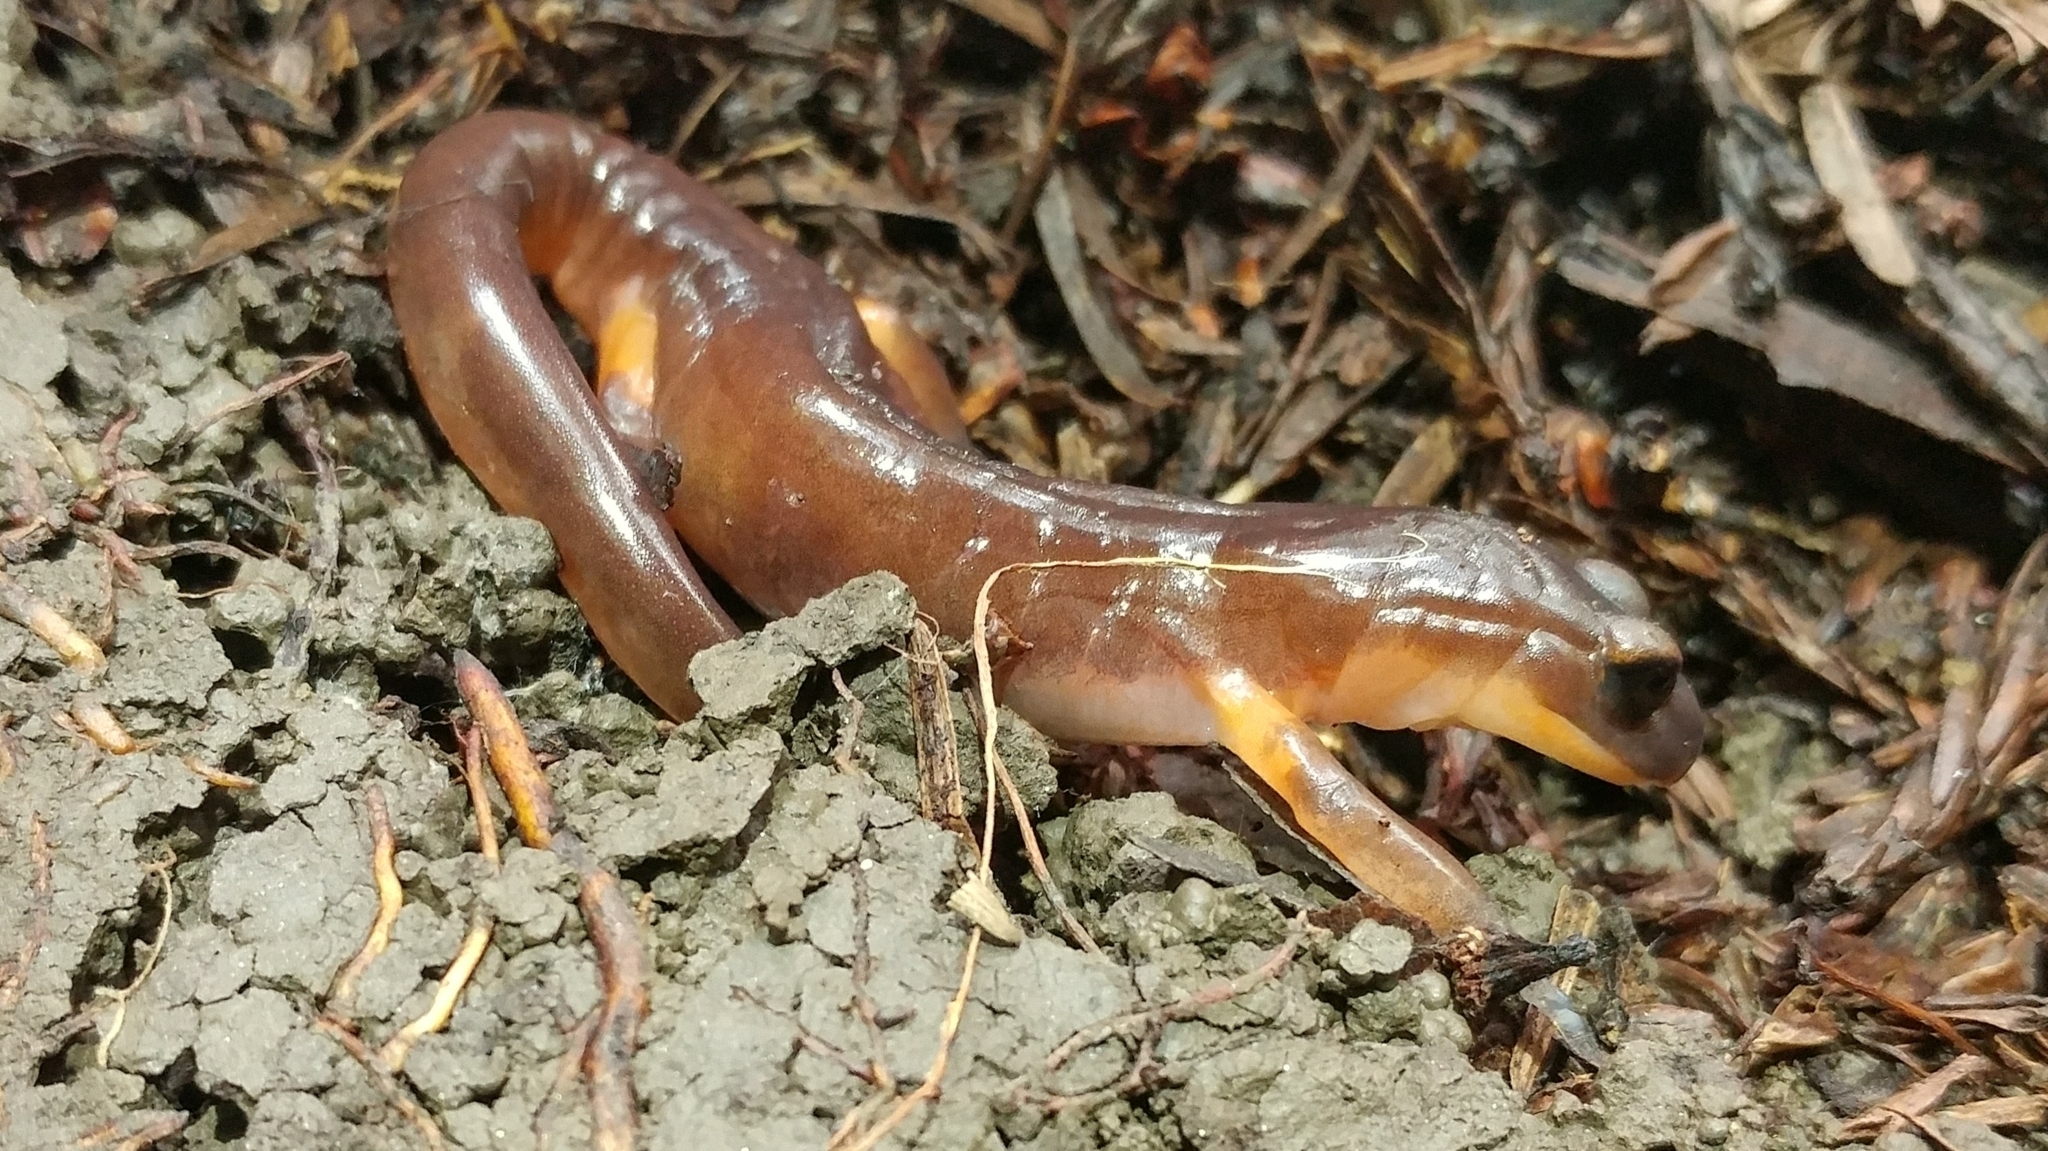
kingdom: Animalia
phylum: Chordata
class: Amphibia
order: Caudata
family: Plethodontidae
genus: Ensatina
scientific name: Ensatina eschscholtzii
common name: Ensatina
